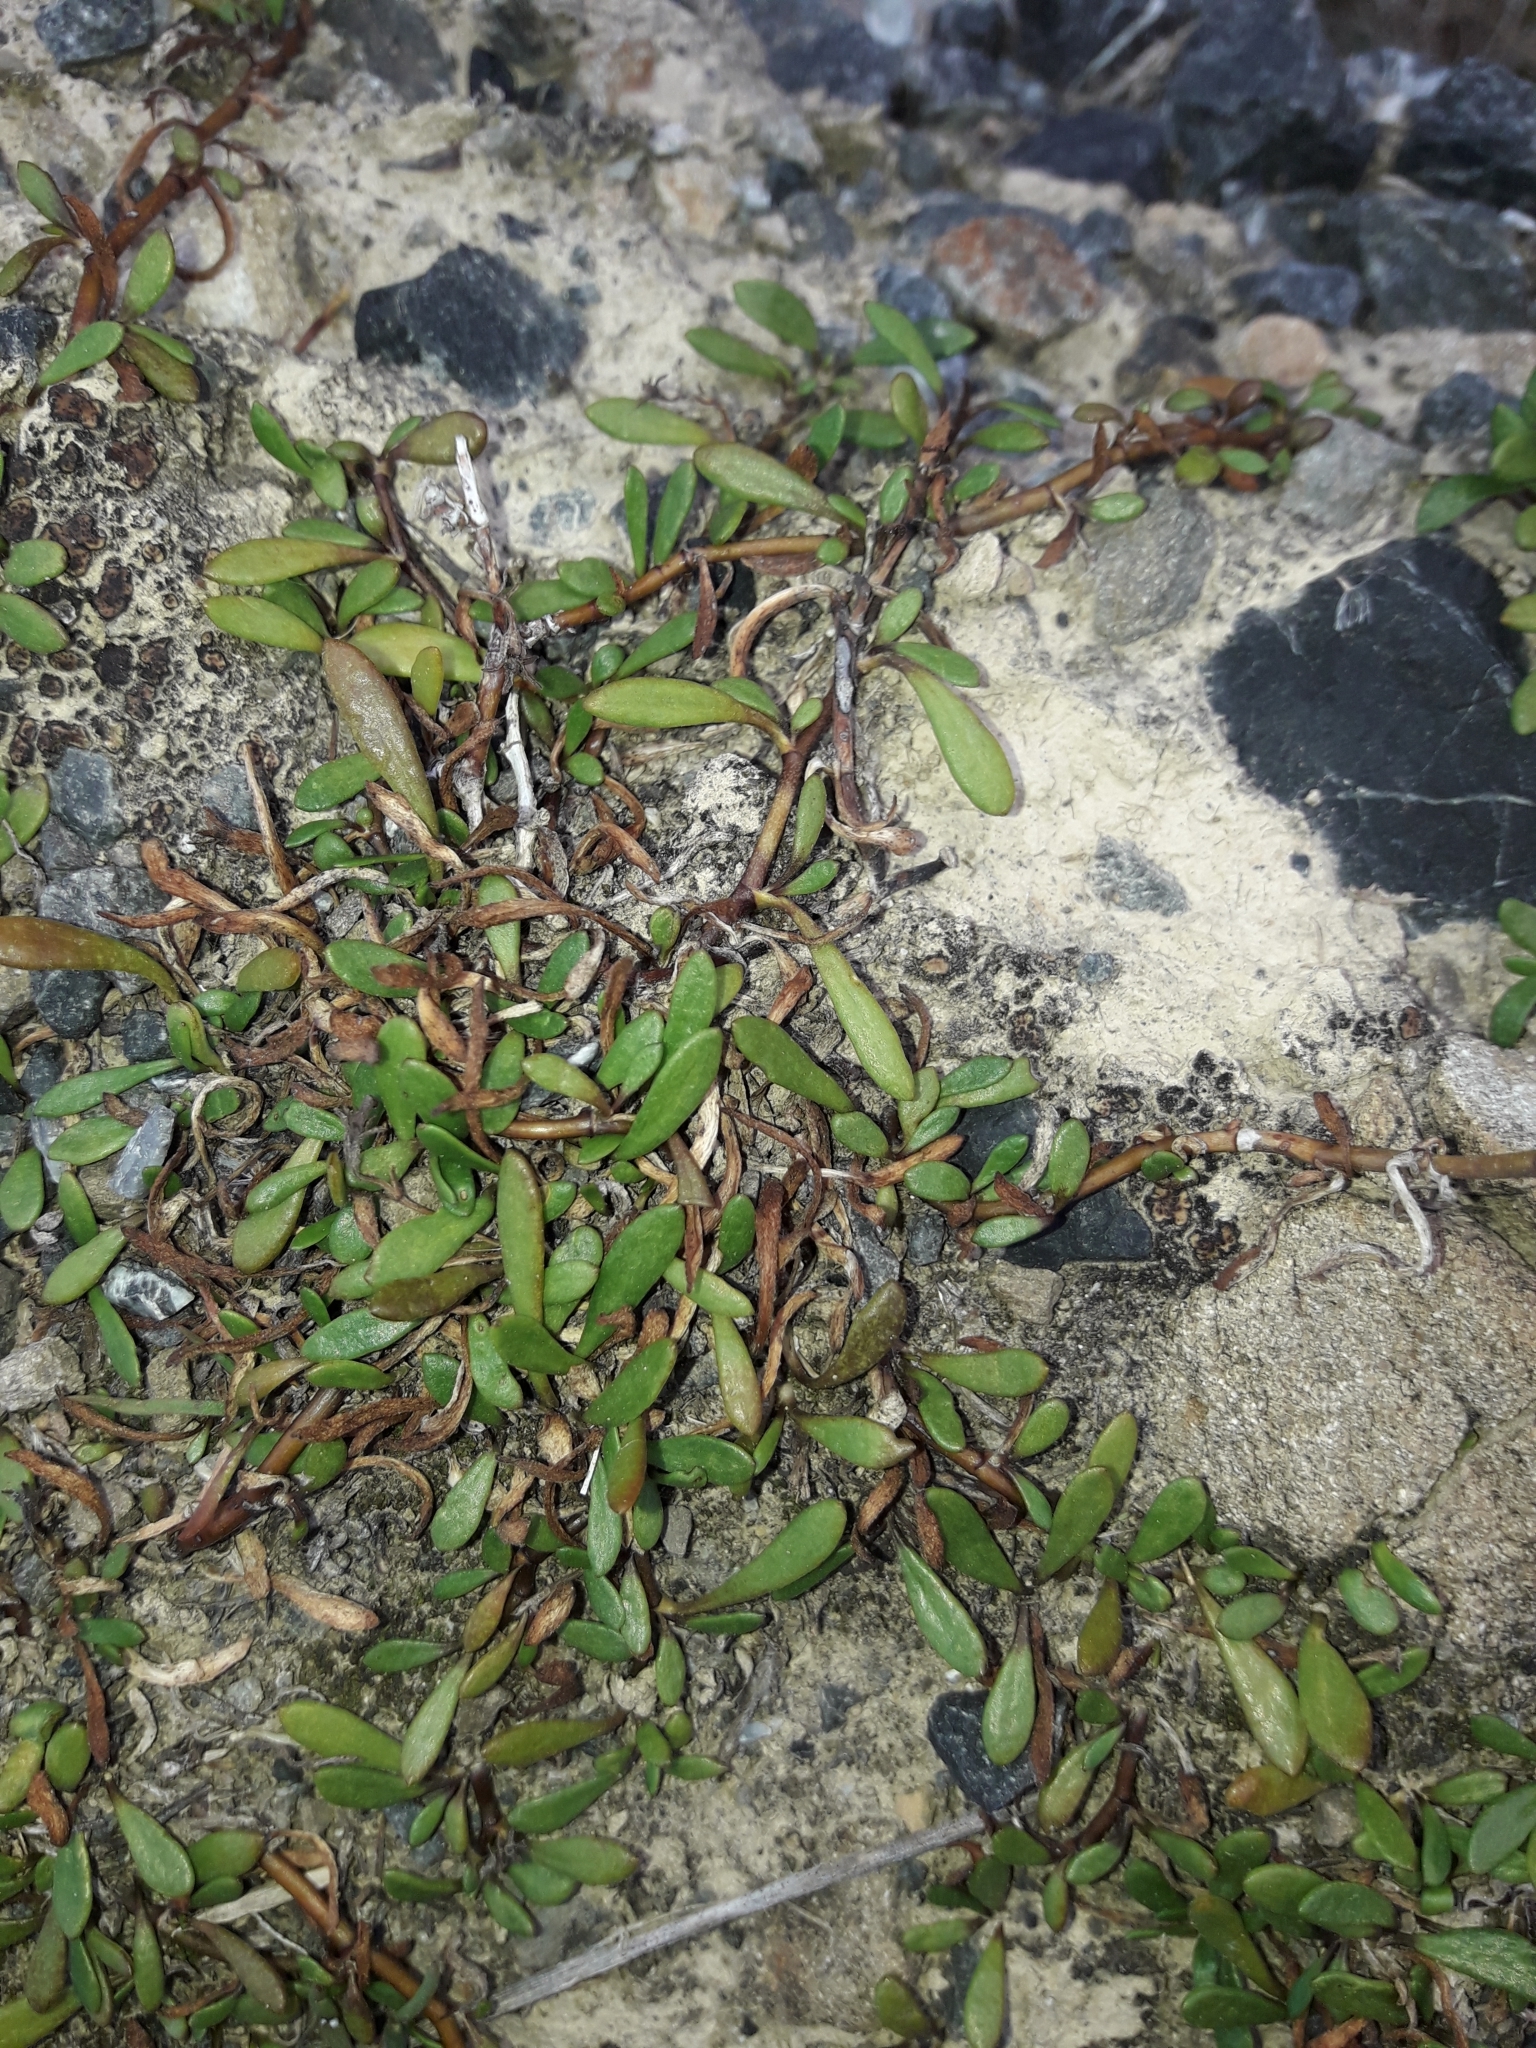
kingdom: Plantae
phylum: Tracheophyta
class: Magnoliopsida
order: Asterales
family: Goodeniaceae
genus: Goodenia
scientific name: Goodenia radicans
